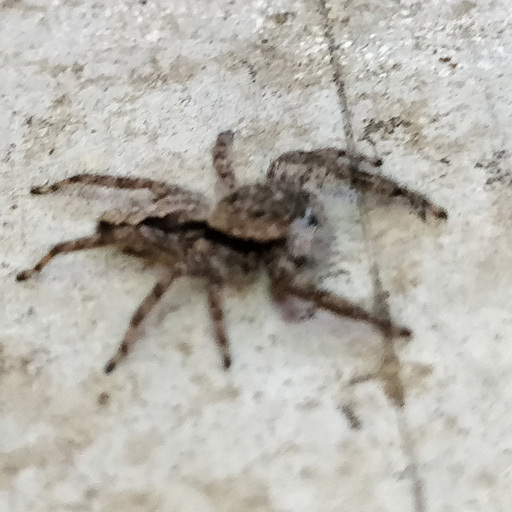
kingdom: Animalia
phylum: Arthropoda
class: Arachnida
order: Araneae
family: Salticidae
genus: Platycryptus
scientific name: Platycryptus undatus
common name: Tan jumping spider
